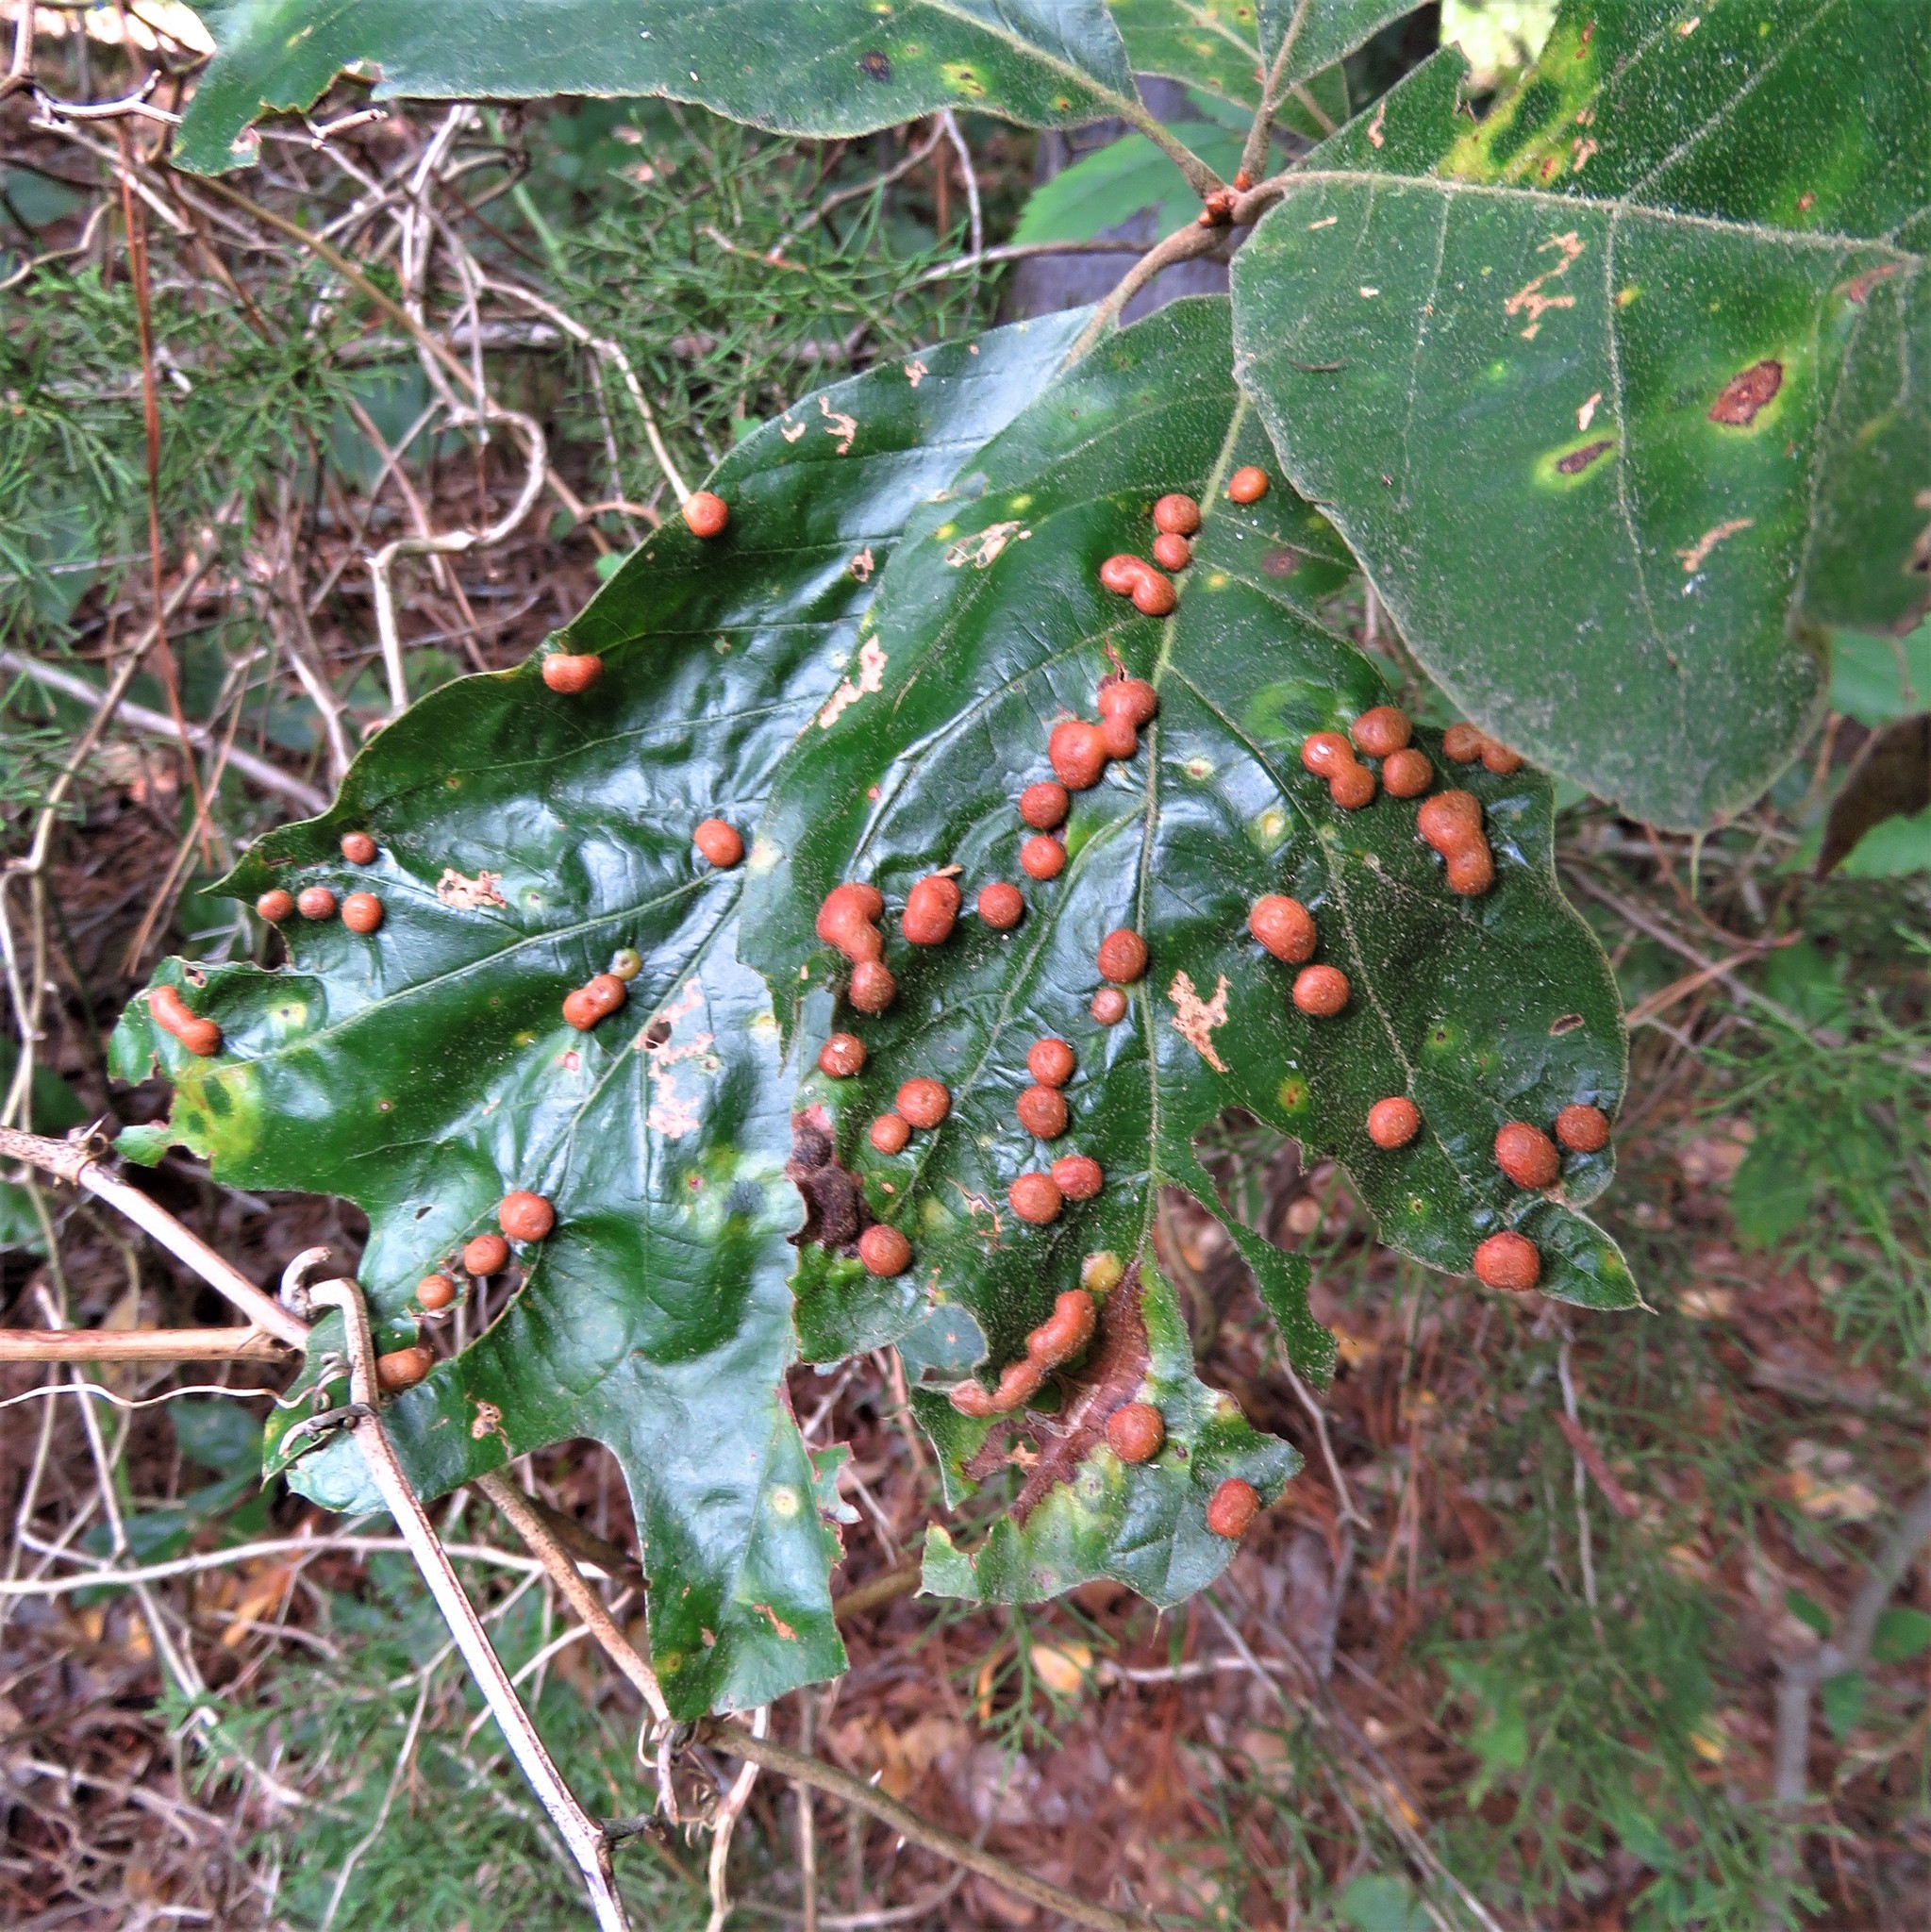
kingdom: Animalia
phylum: Arthropoda
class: Insecta
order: Diptera
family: Cecidomyiidae
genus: Polystepha
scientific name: Polystepha pilulae
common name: Oak leaf gall midge
